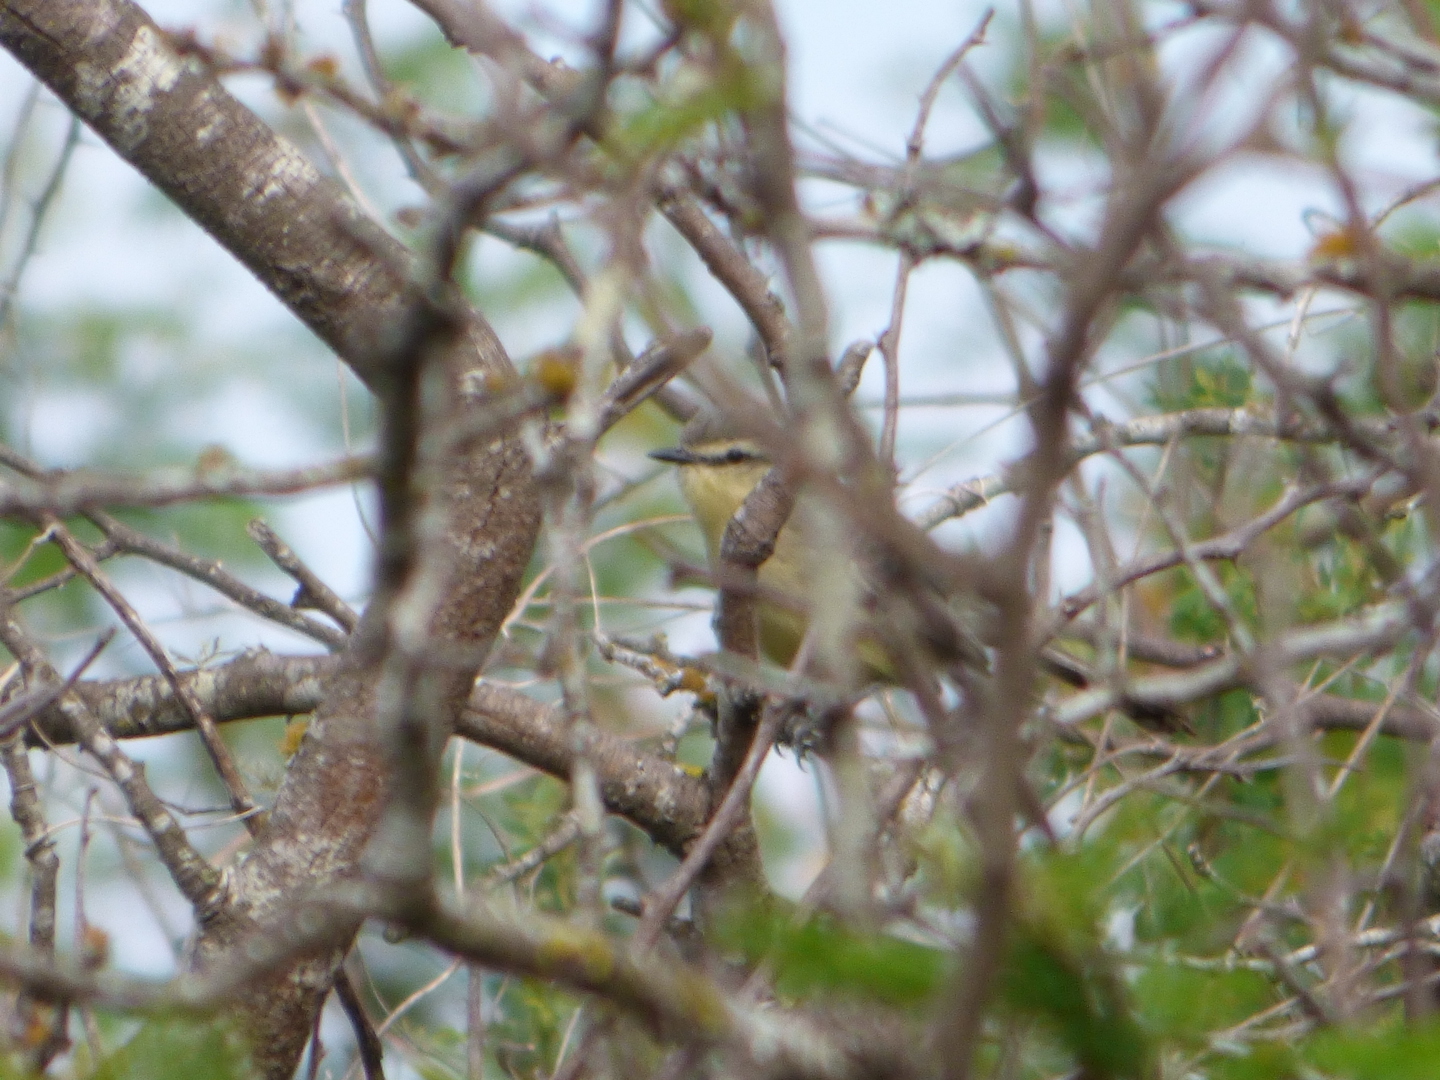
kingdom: Animalia
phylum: Chordata
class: Aves
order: Passeriformes
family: Tyrannidae
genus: Stigmatura
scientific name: Stigmatura budytoides
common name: Greater wagtail-tyrant
